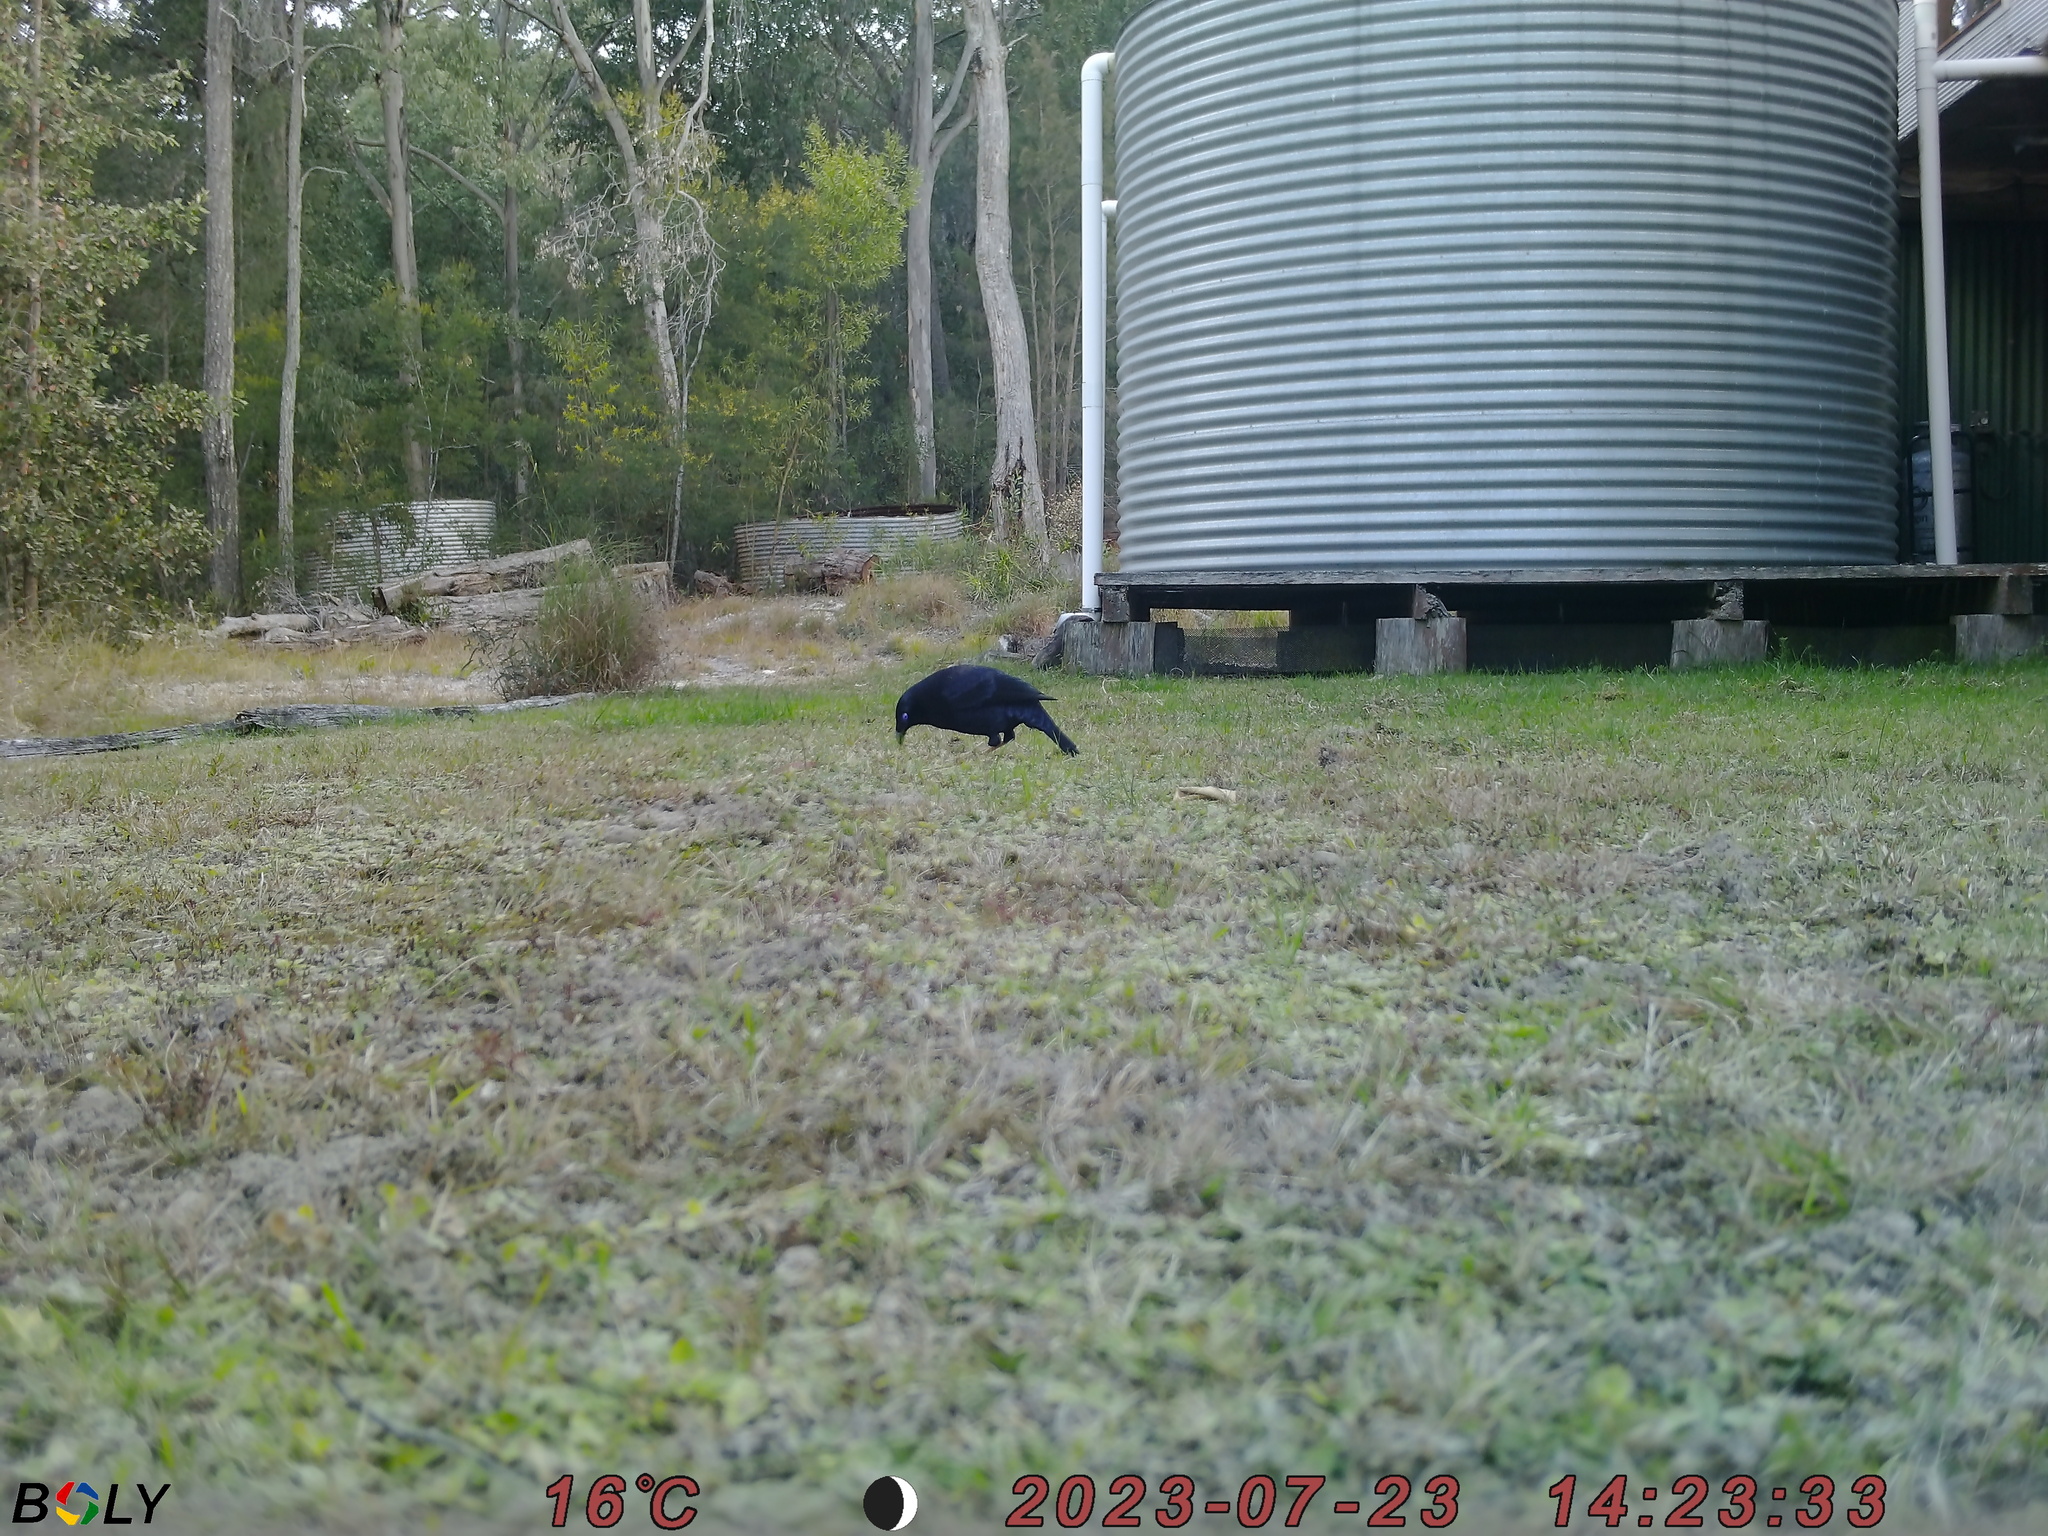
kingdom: Animalia
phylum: Chordata
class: Aves
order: Passeriformes
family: Ptilonorhynchidae
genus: Ptilonorhynchus
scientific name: Ptilonorhynchus violaceus
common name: Satin bowerbird
